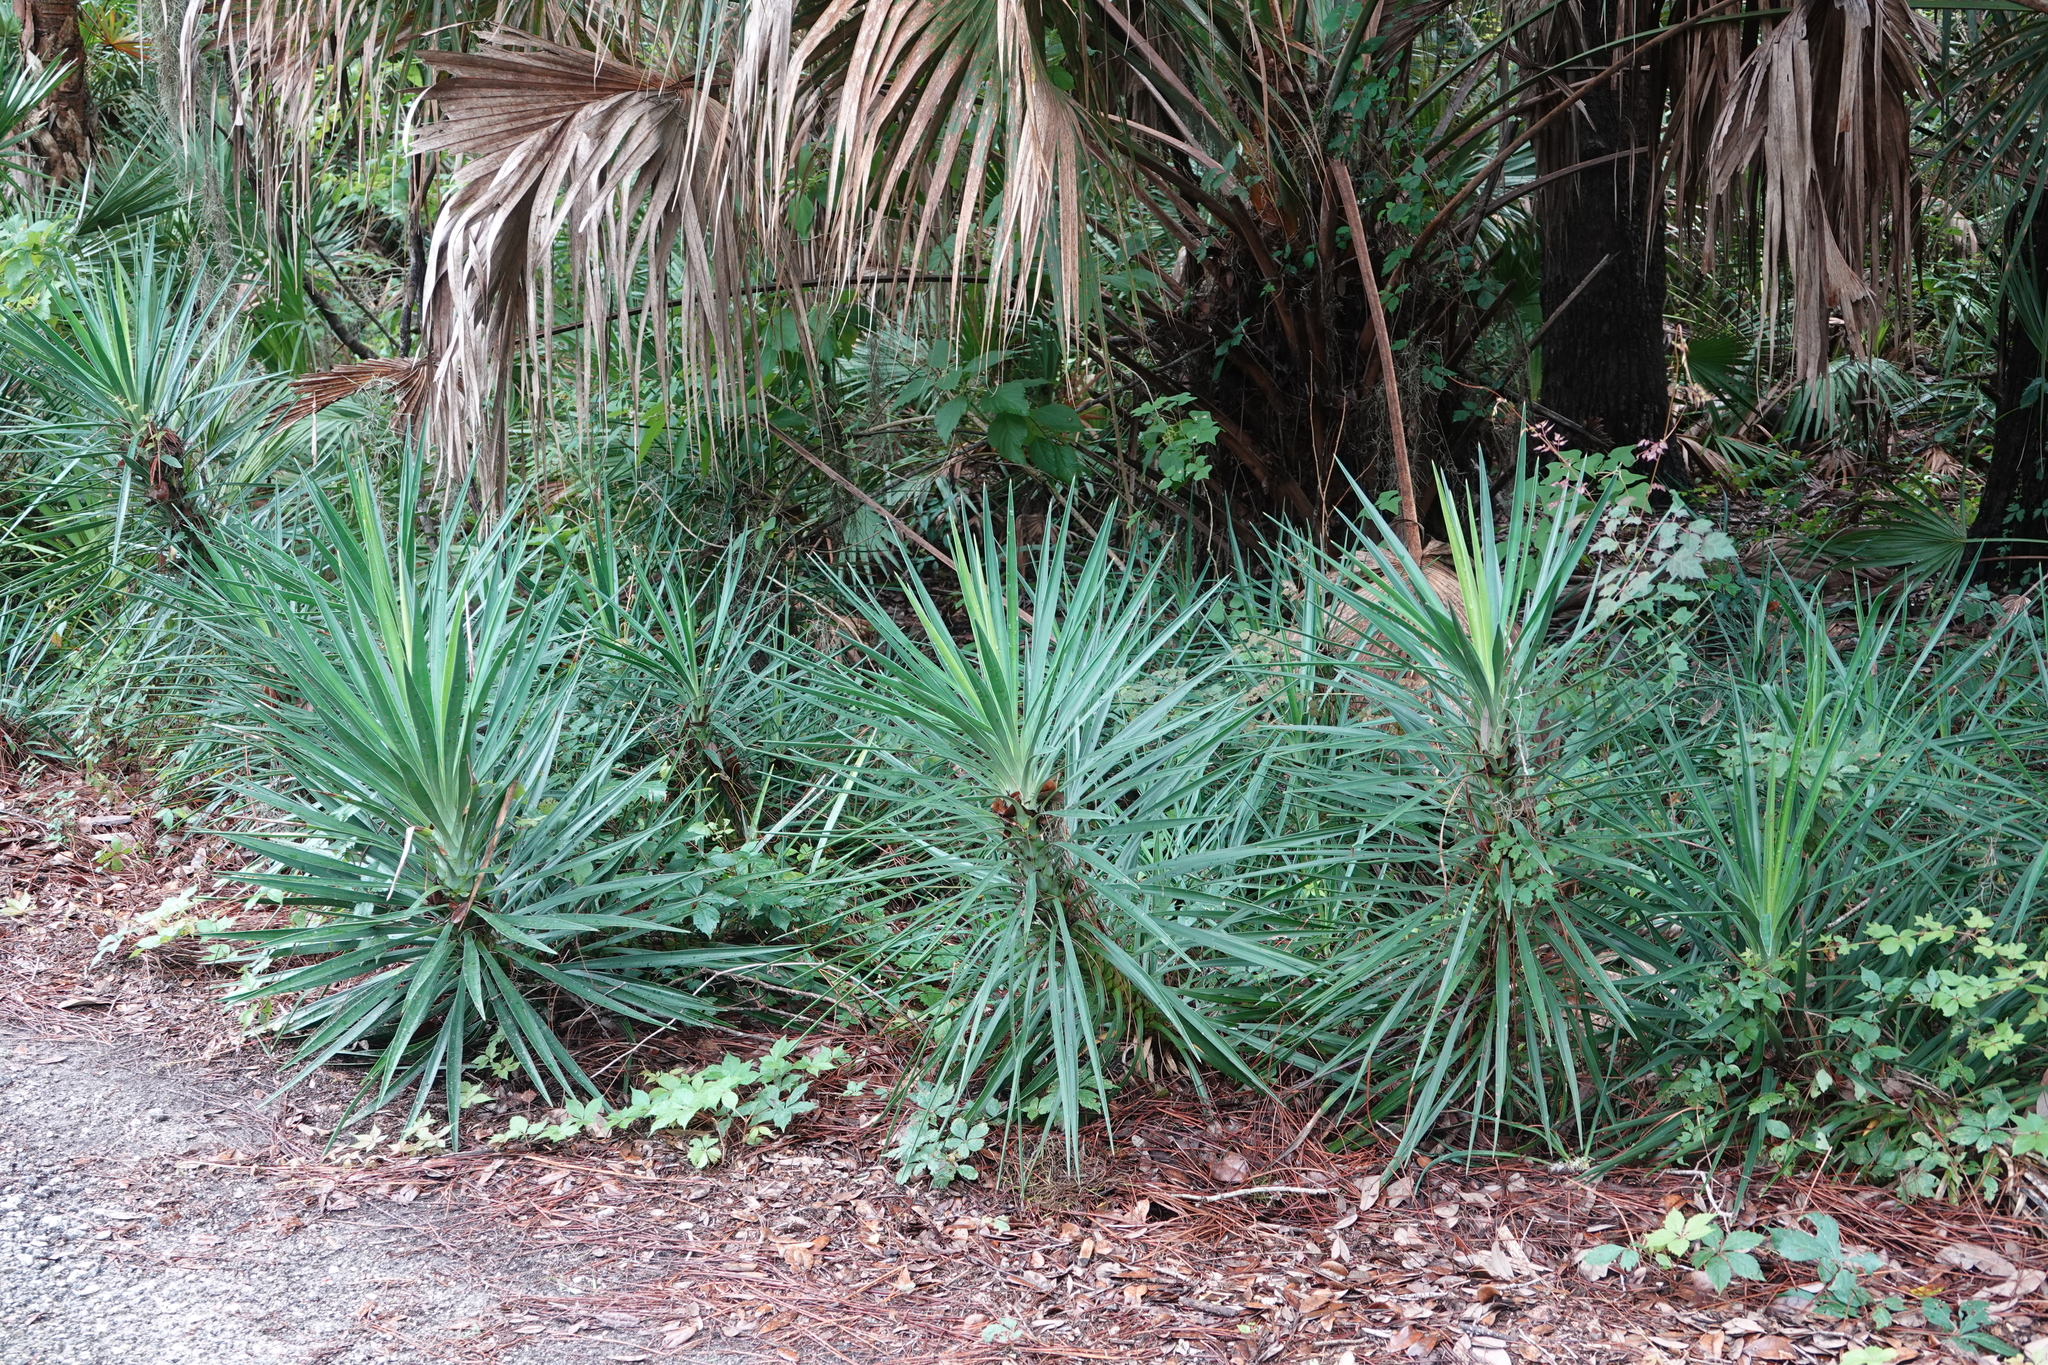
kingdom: Plantae
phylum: Tracheophyta
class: Liliopsida
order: Asparagales
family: Asparagaceae
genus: Yucca
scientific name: Yucca aloifolia
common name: Aloe yucca
